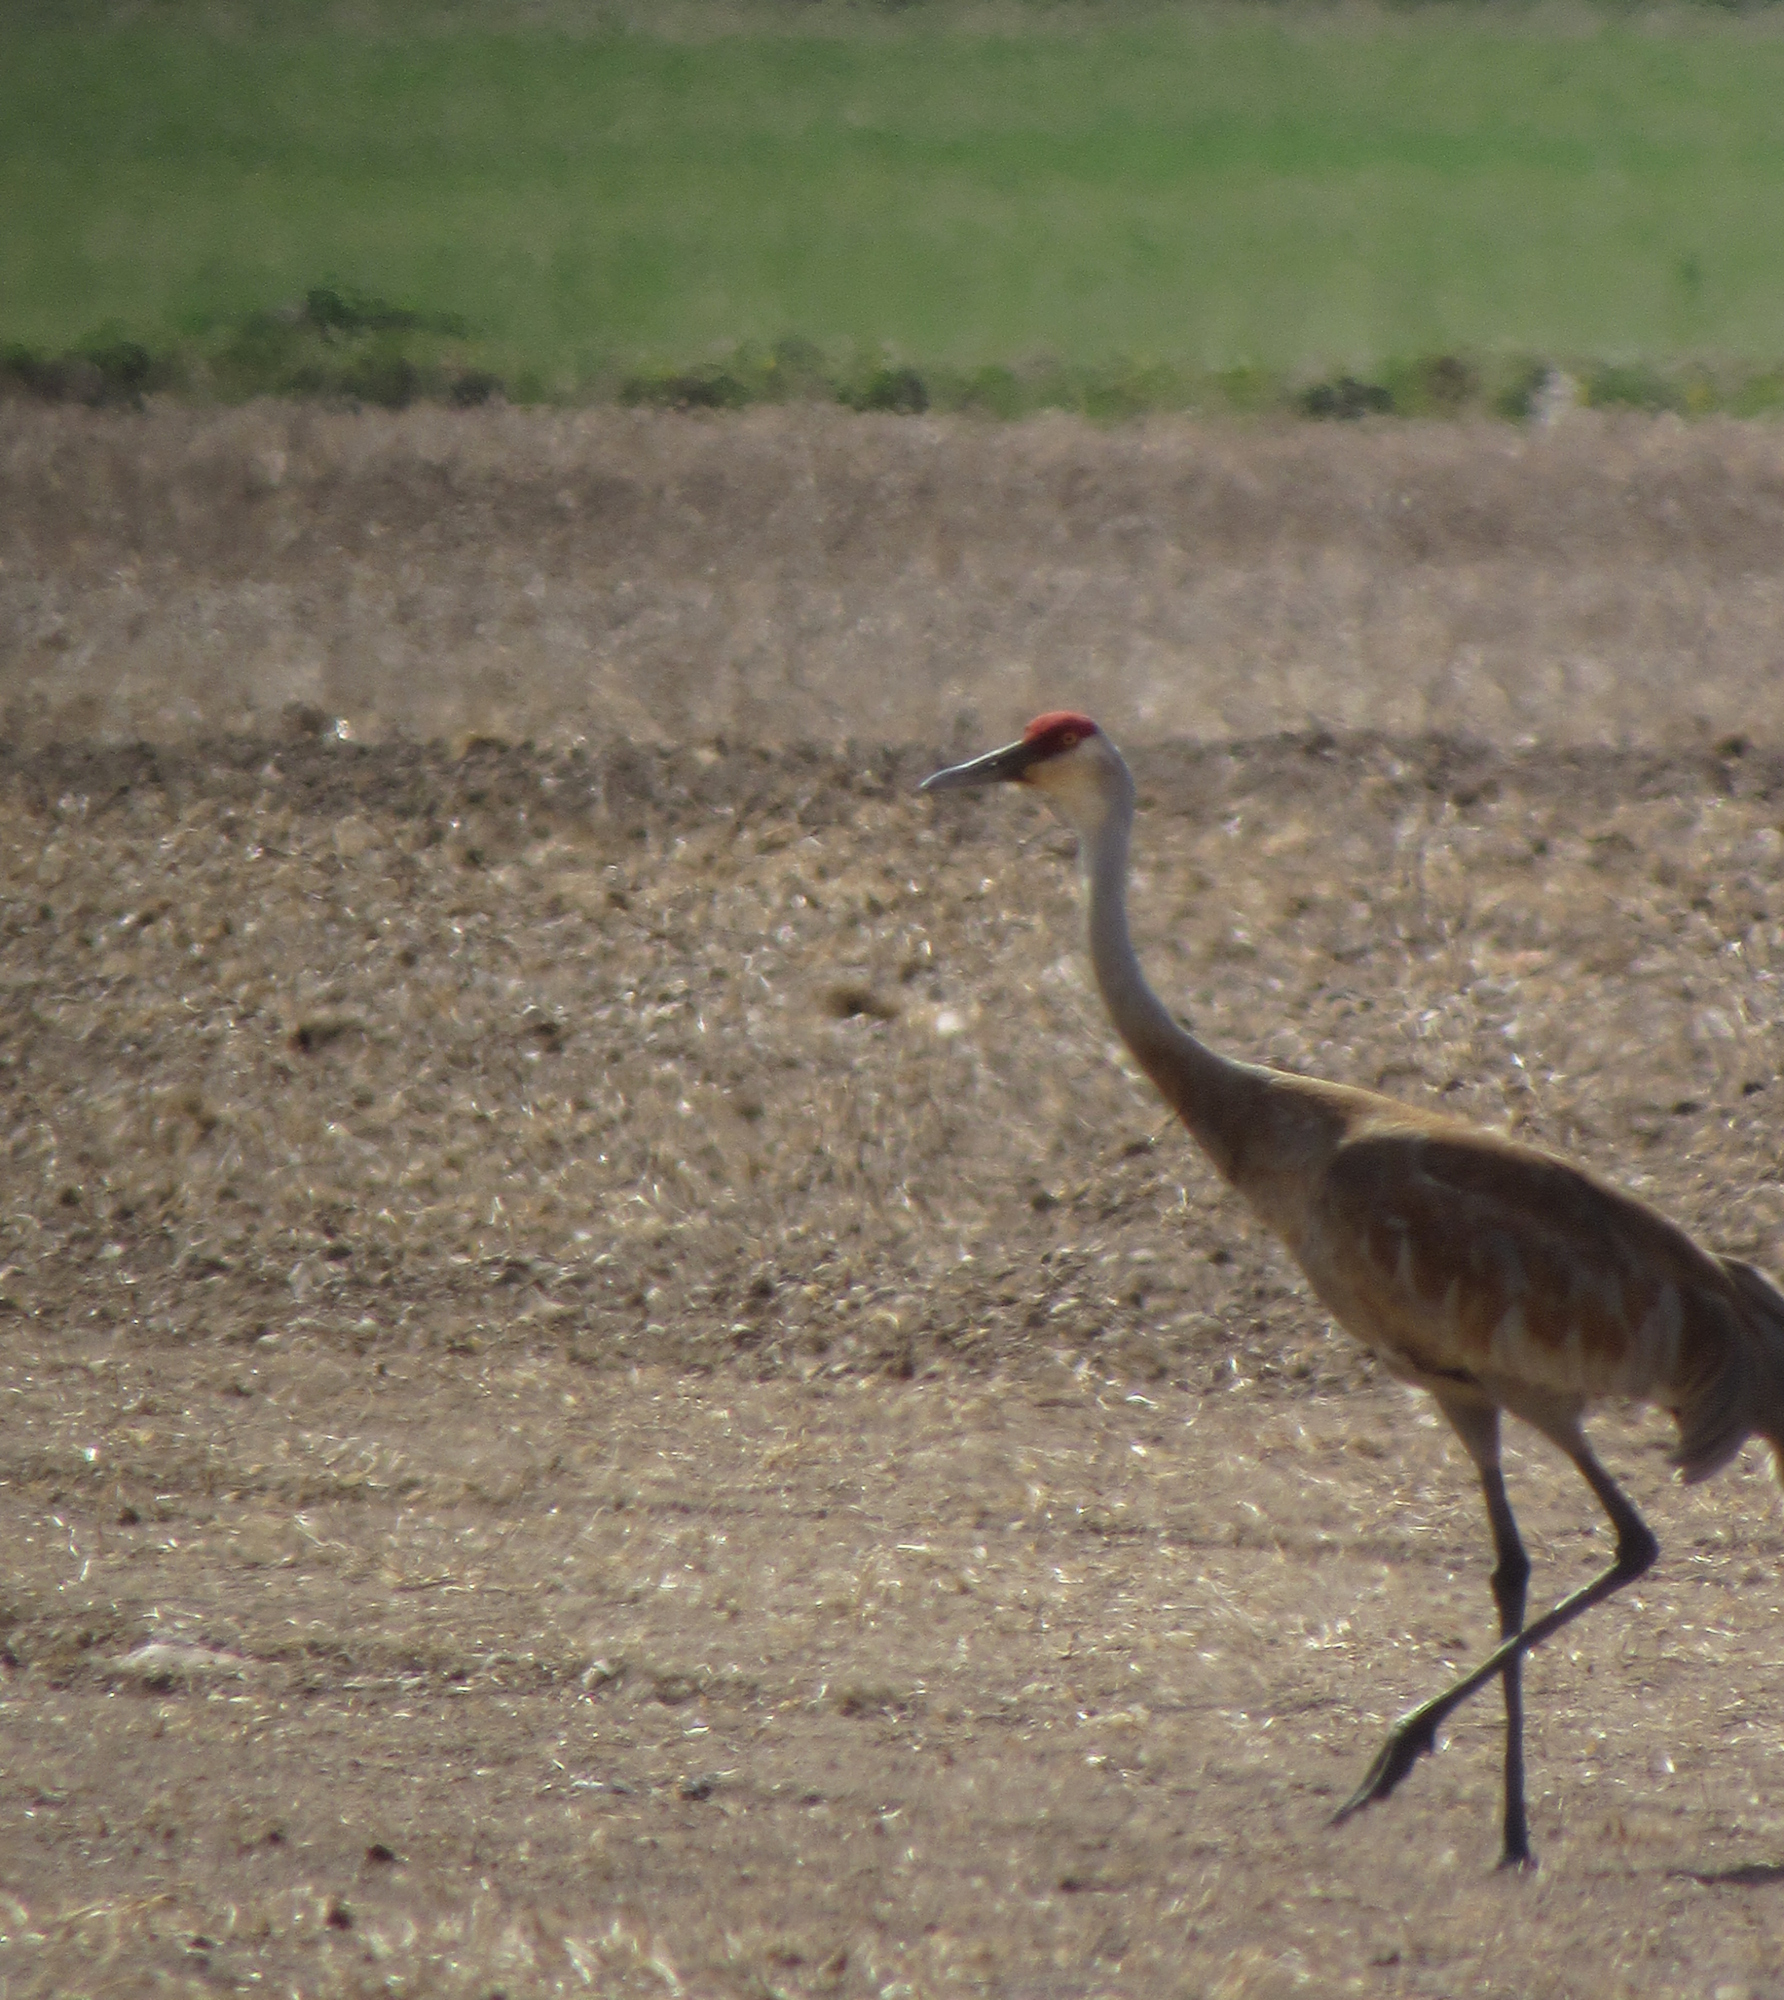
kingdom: Animalia
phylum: Chordata
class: Aves
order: Gruiformes
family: Gruidae
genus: Grus
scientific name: Grus canadensis
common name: Sandhill crane
